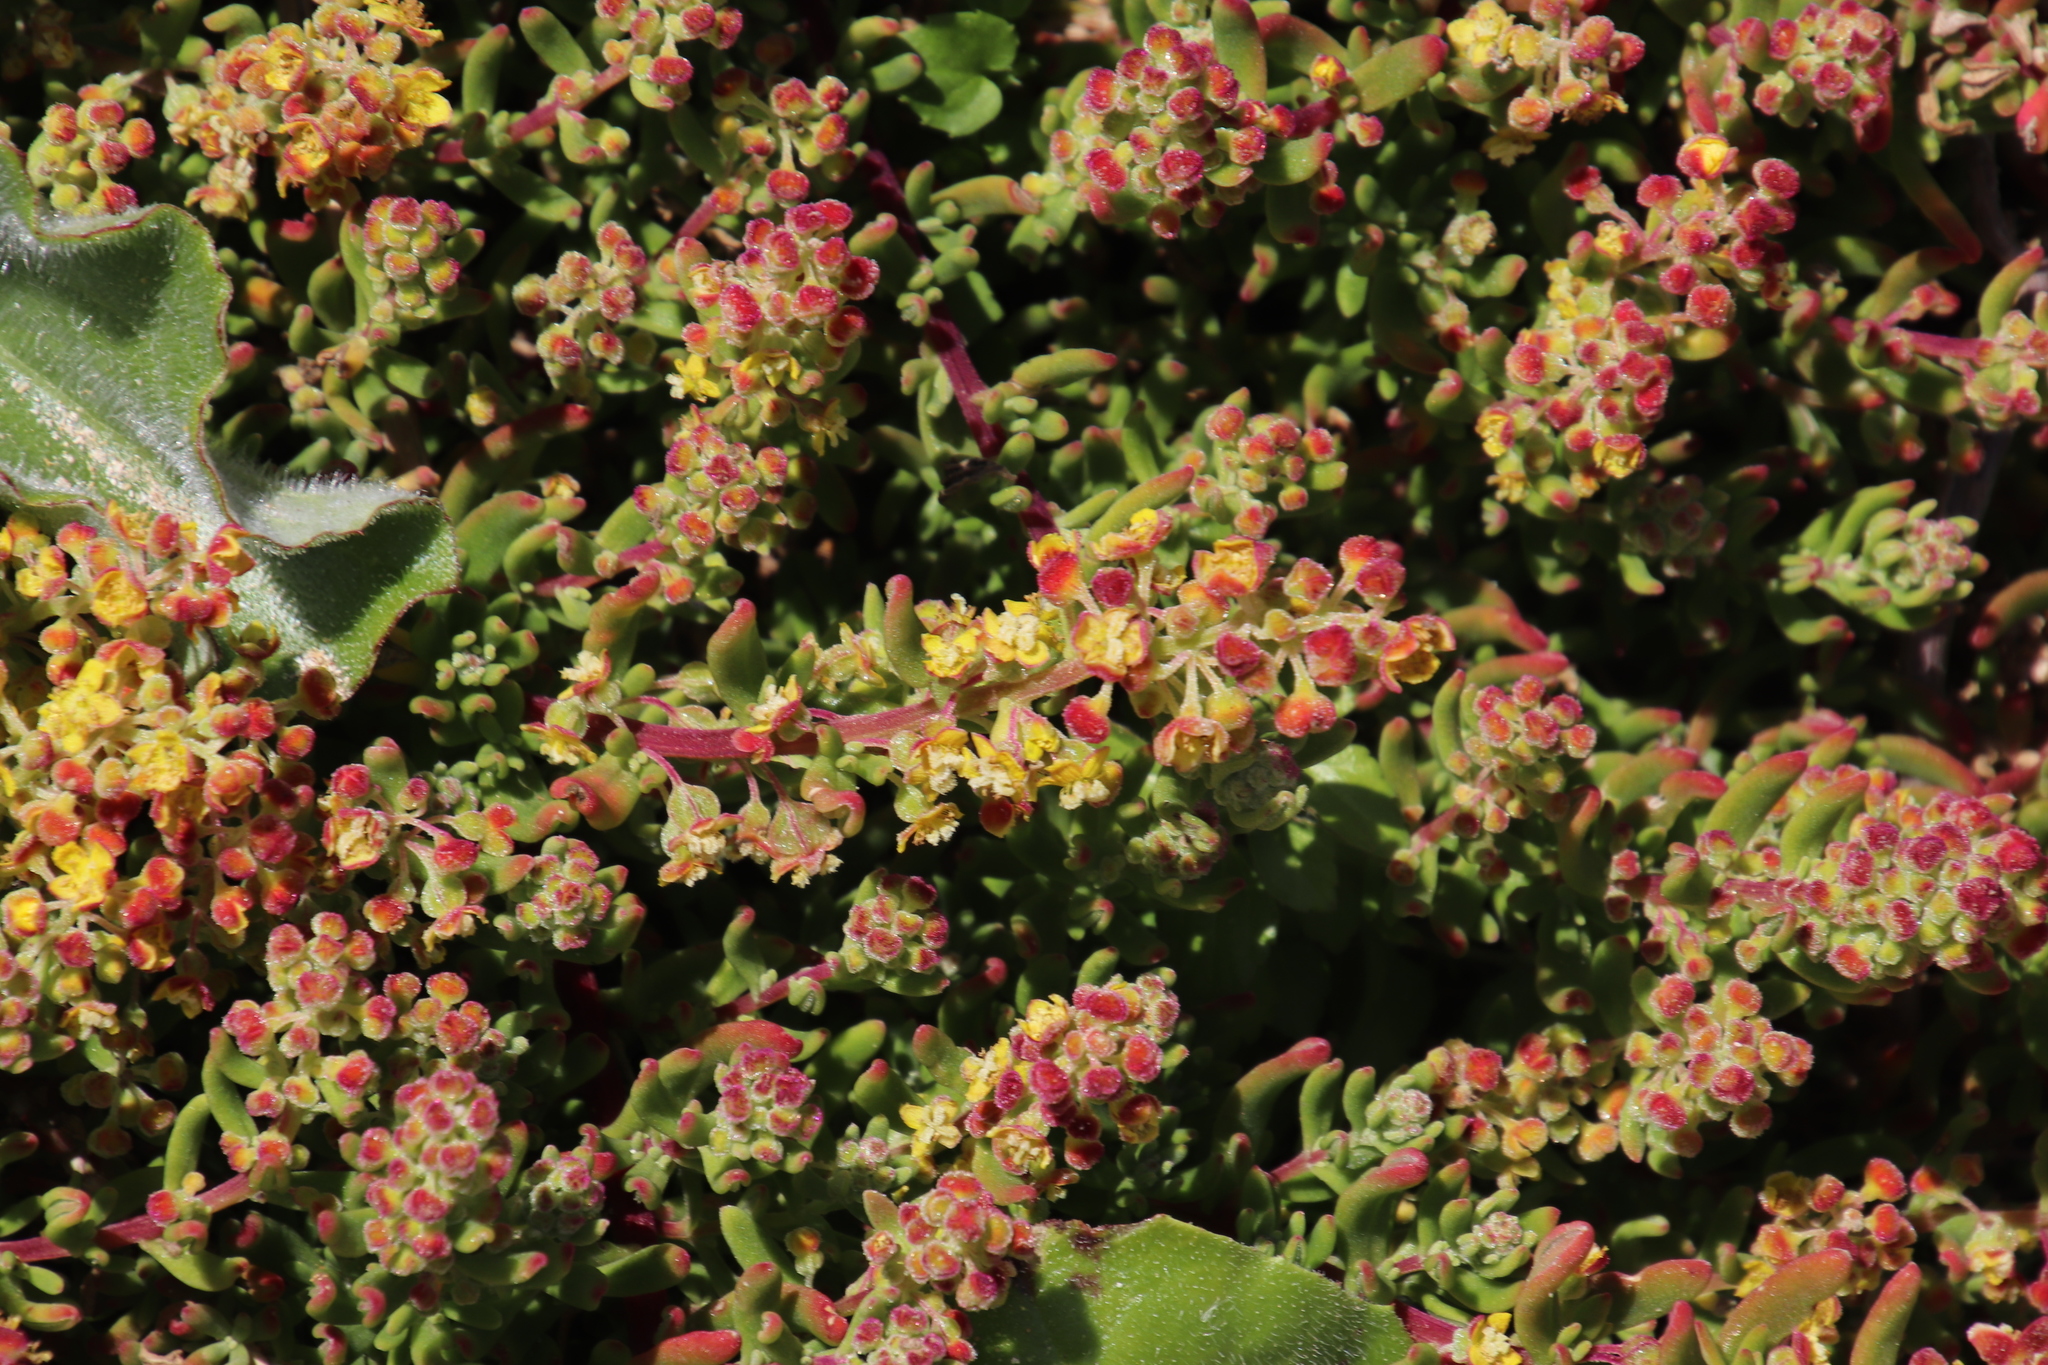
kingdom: Plantae
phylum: Tracheophyta
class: Magnoliopsida
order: Caryophyllales
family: Aizoaceae
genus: Tetragonia
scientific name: Tetragonia fruticosa
